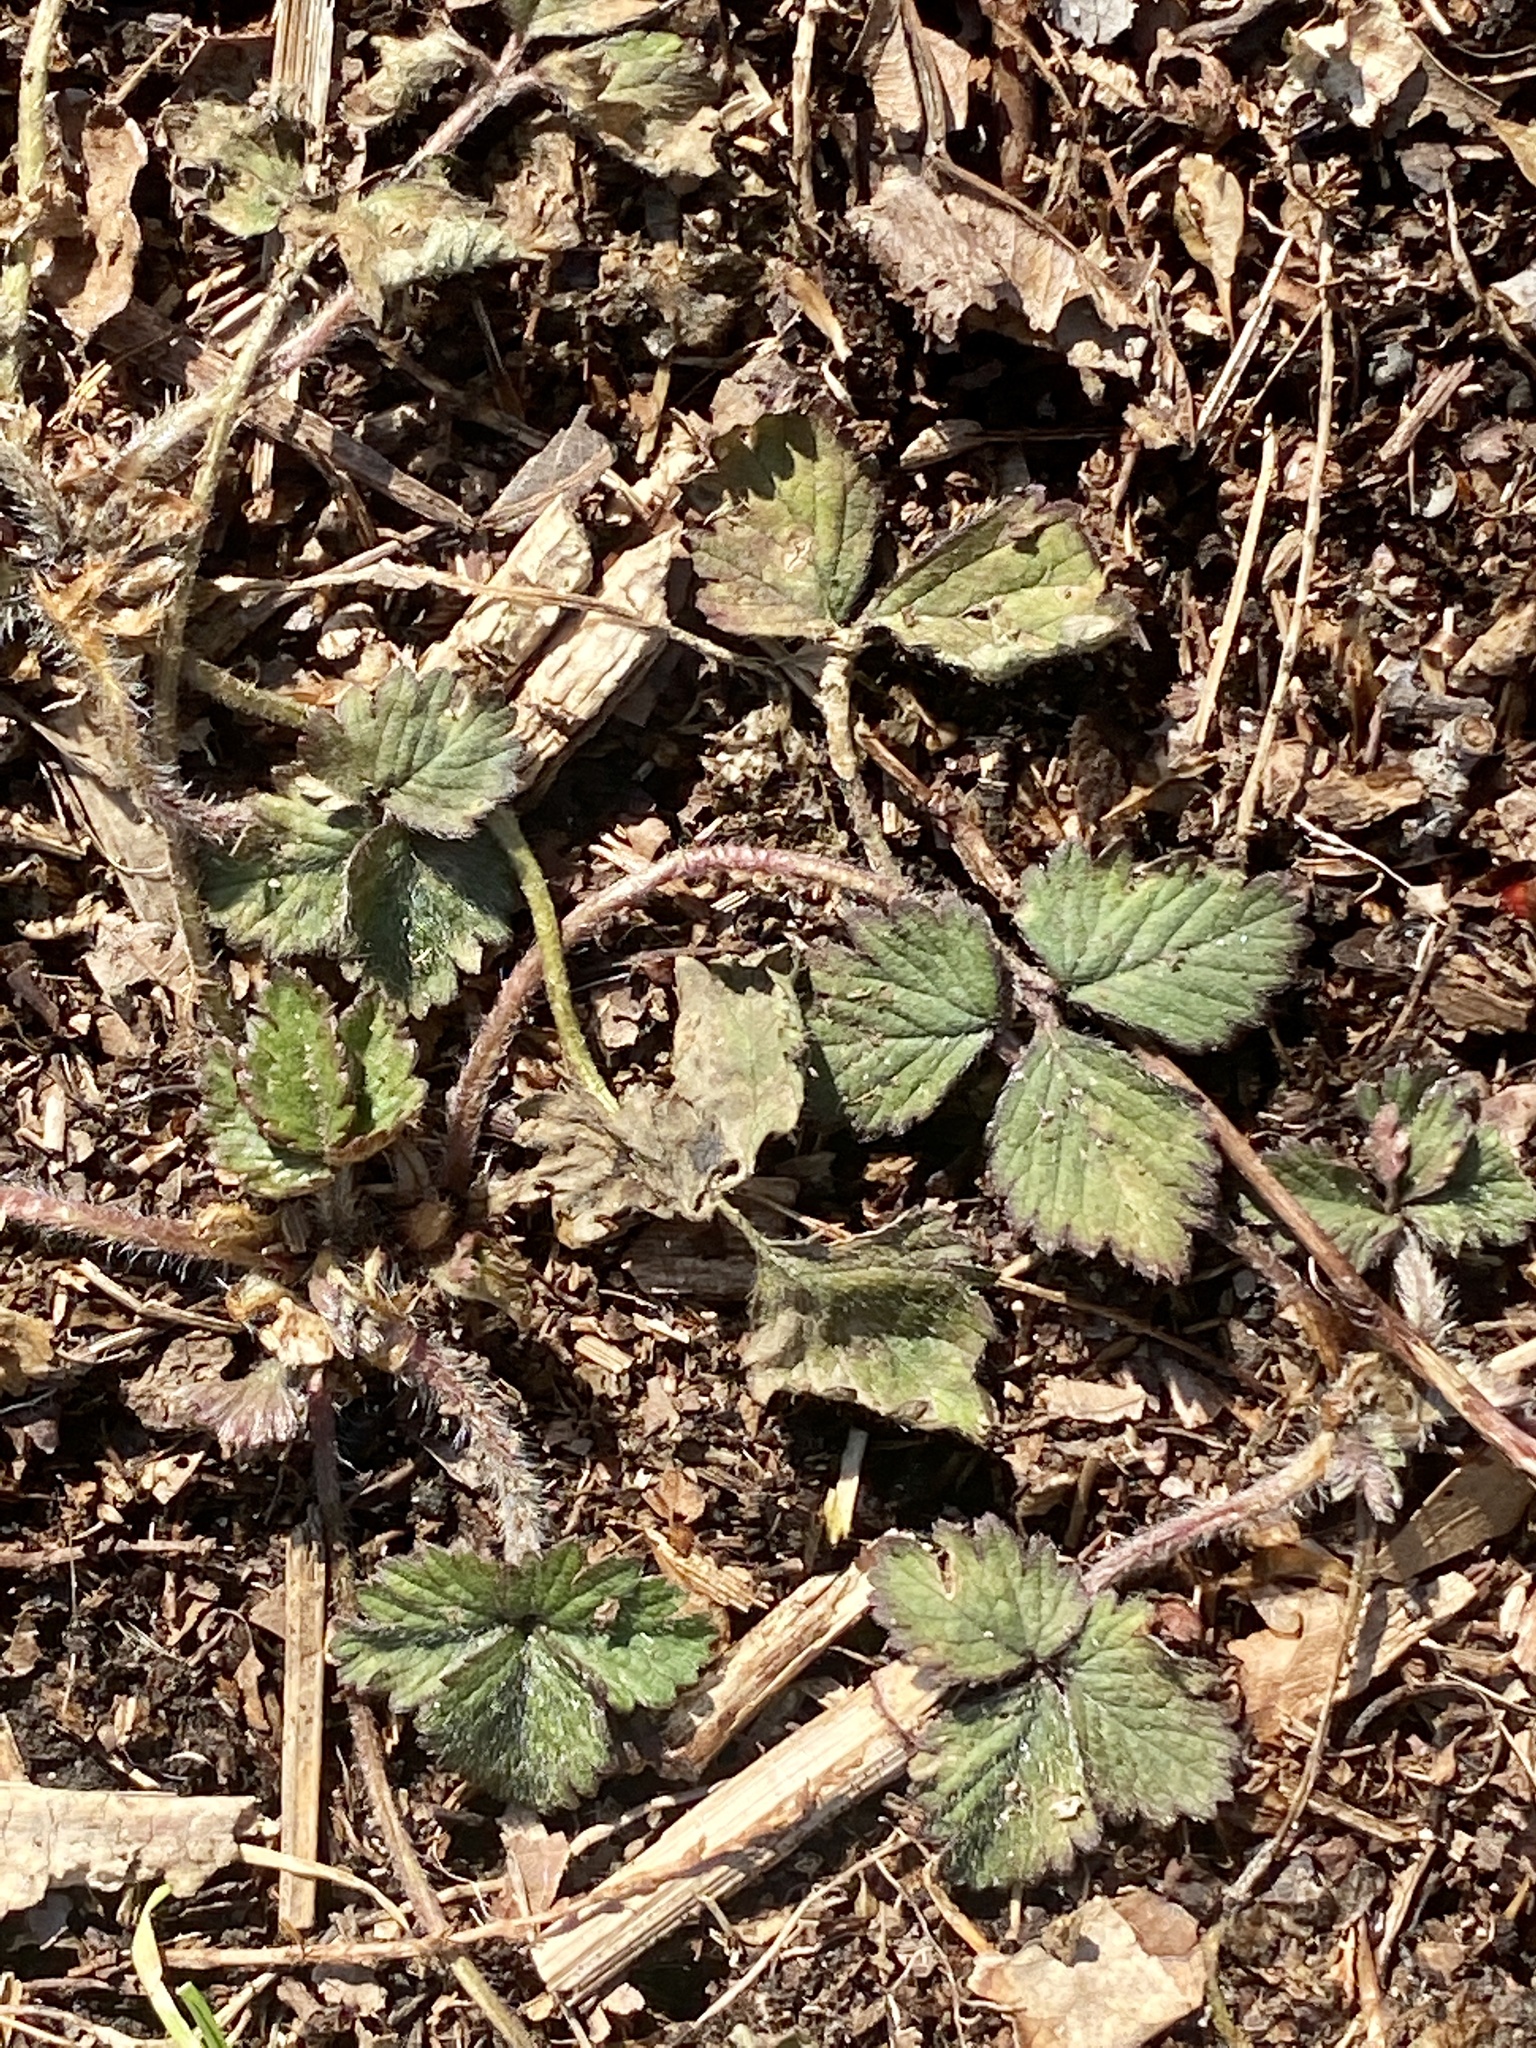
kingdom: Plantae
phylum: Tracheophyta
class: Magnoliopsida
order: Rosales
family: Rosaceae
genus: Potentilla
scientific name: Potentilla indica
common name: Yellow-flowered strawberry
